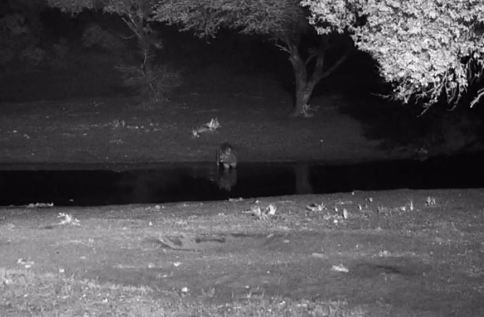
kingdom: Animalia
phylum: Chordata
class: Mammalia
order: Perissodactyla
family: Rhinocerotidae
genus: Diceros
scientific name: Diceros bicornis
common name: Black rhinoceros
